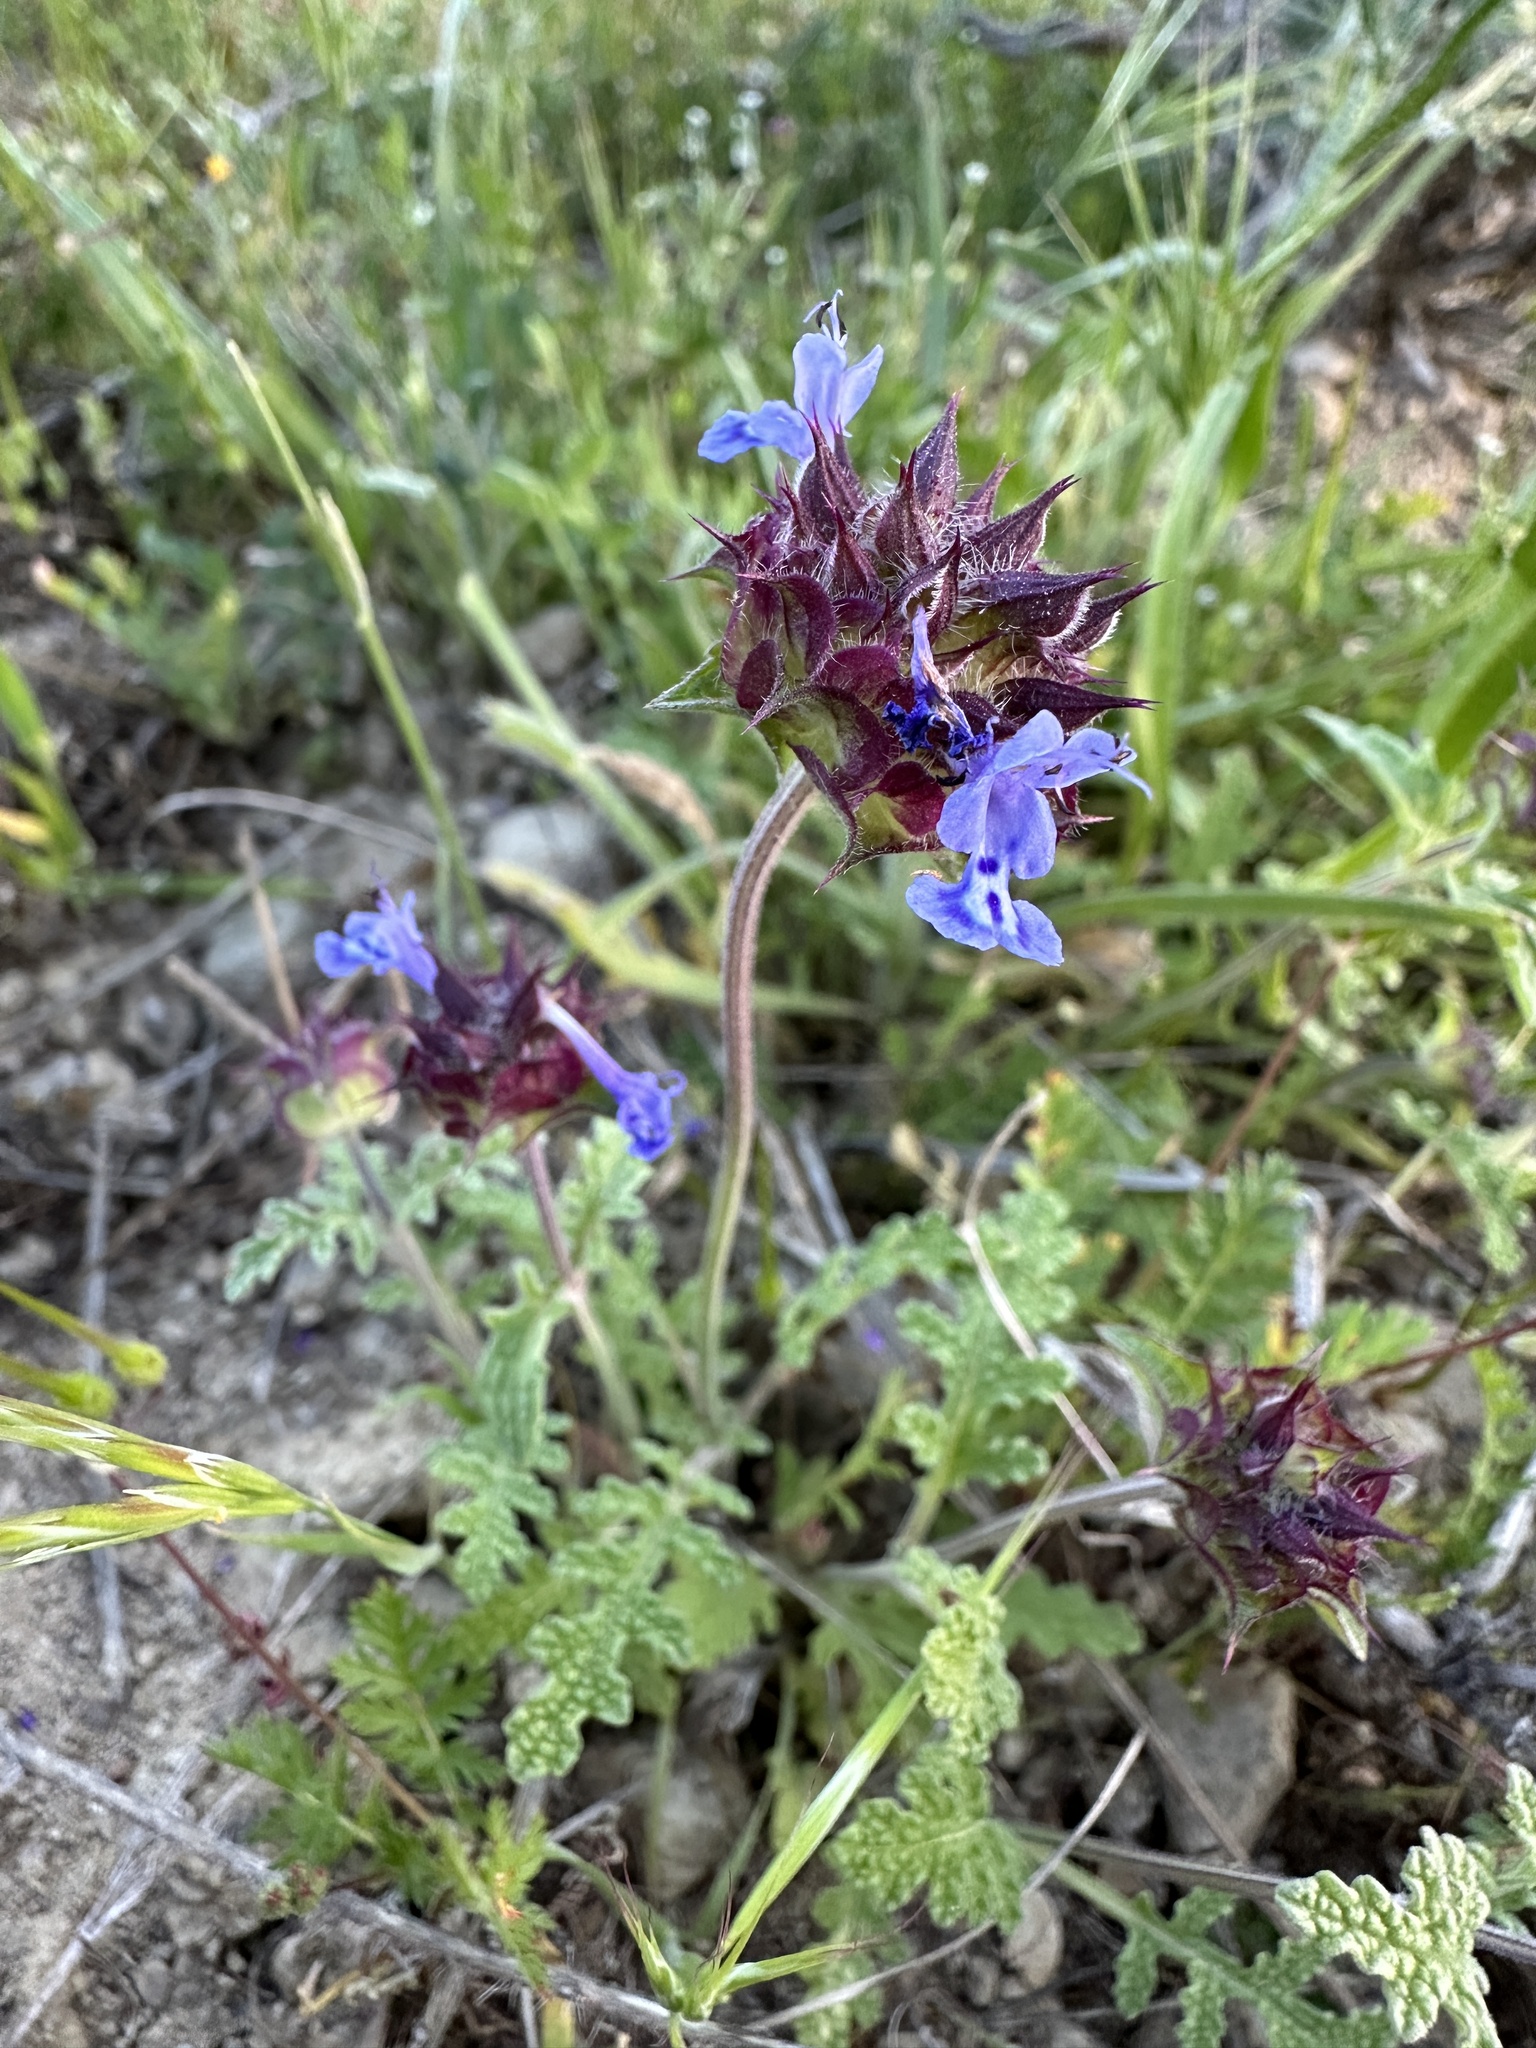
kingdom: Plantae
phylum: Tracheophyta
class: Magnoliopsida
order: Lamiales
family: Lamiaceae
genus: Salvia
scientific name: Salvia columbariae
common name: Chia
